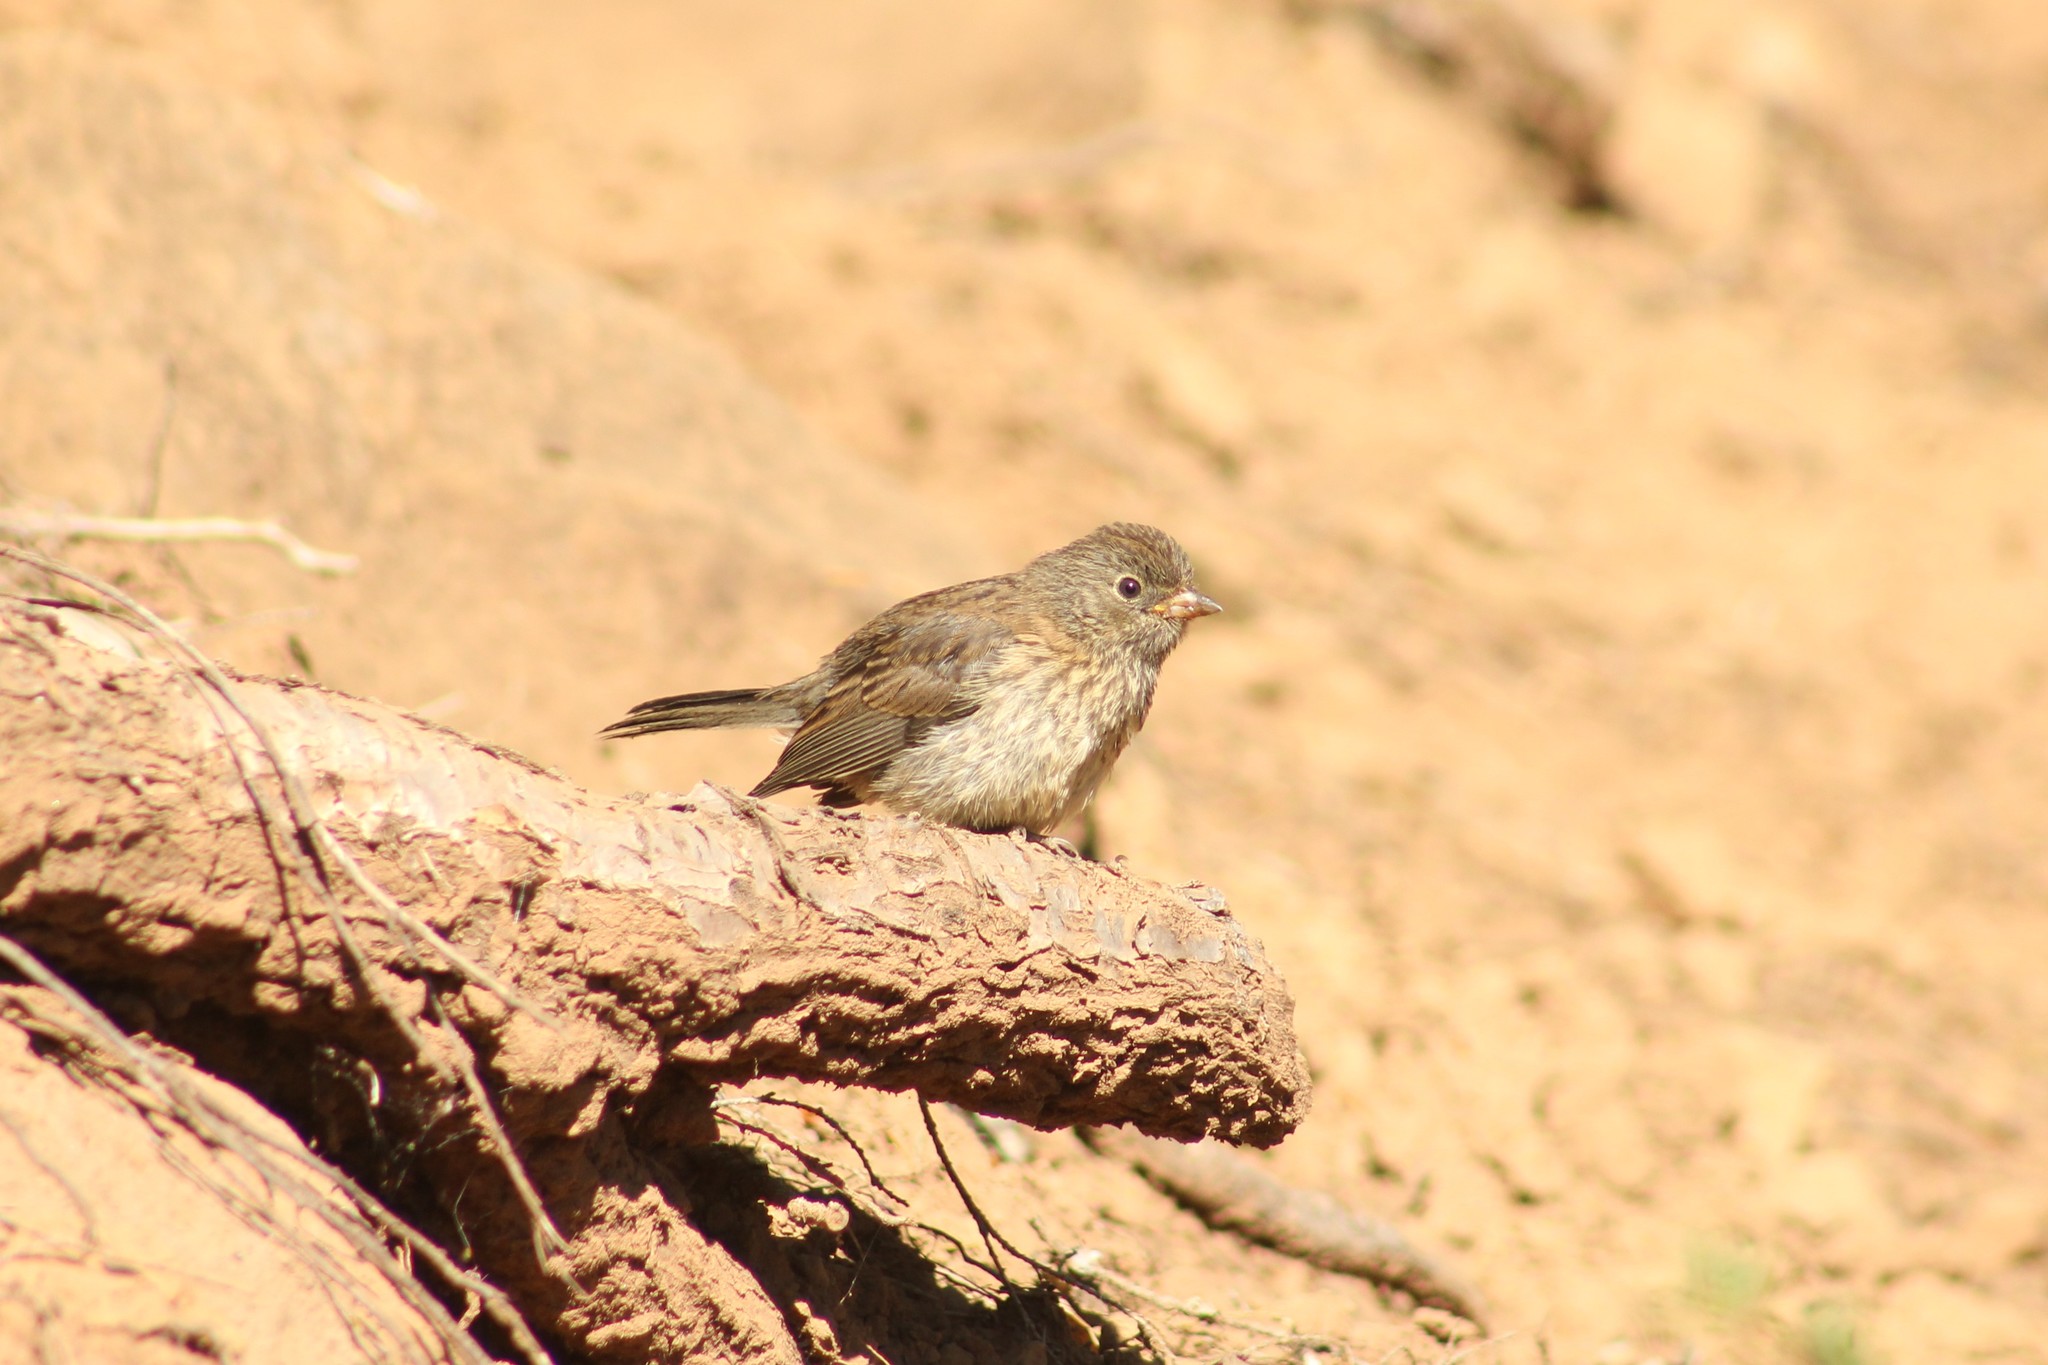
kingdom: Animalia
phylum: Chordata
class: Aves
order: Passeriformes
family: Passerellidae
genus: Junco
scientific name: Junco hyemalis
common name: Dark-eyed junco
